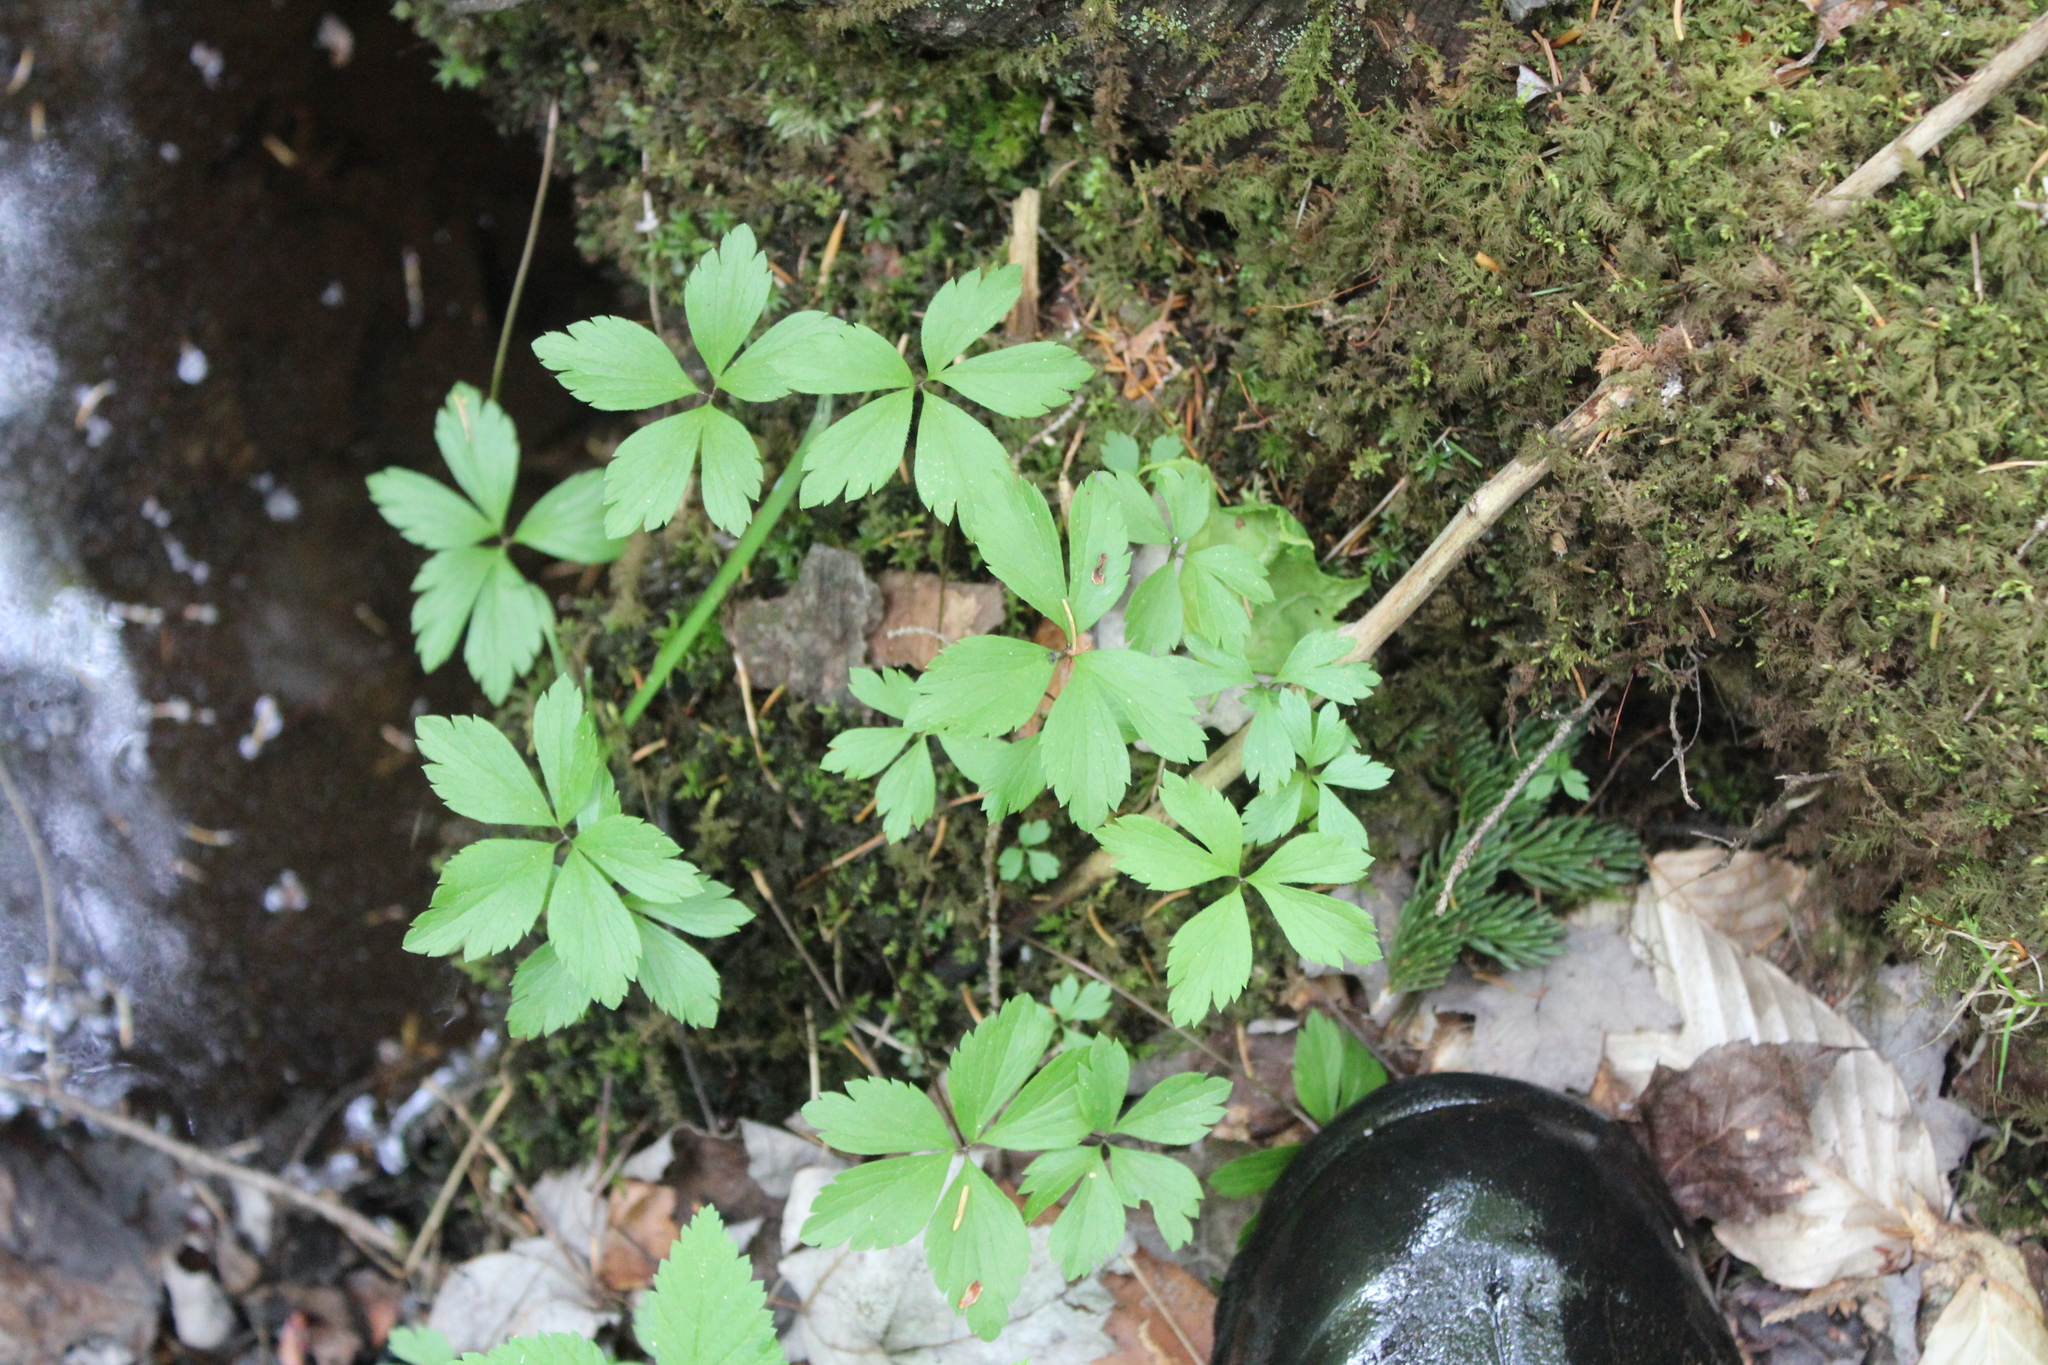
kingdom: Plantae
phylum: Tracheophyta
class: Magnoliopsida
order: Ranunculales
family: Ranunculaceae
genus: Anemone
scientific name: Anemone quinquefolia
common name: Wood anemone
